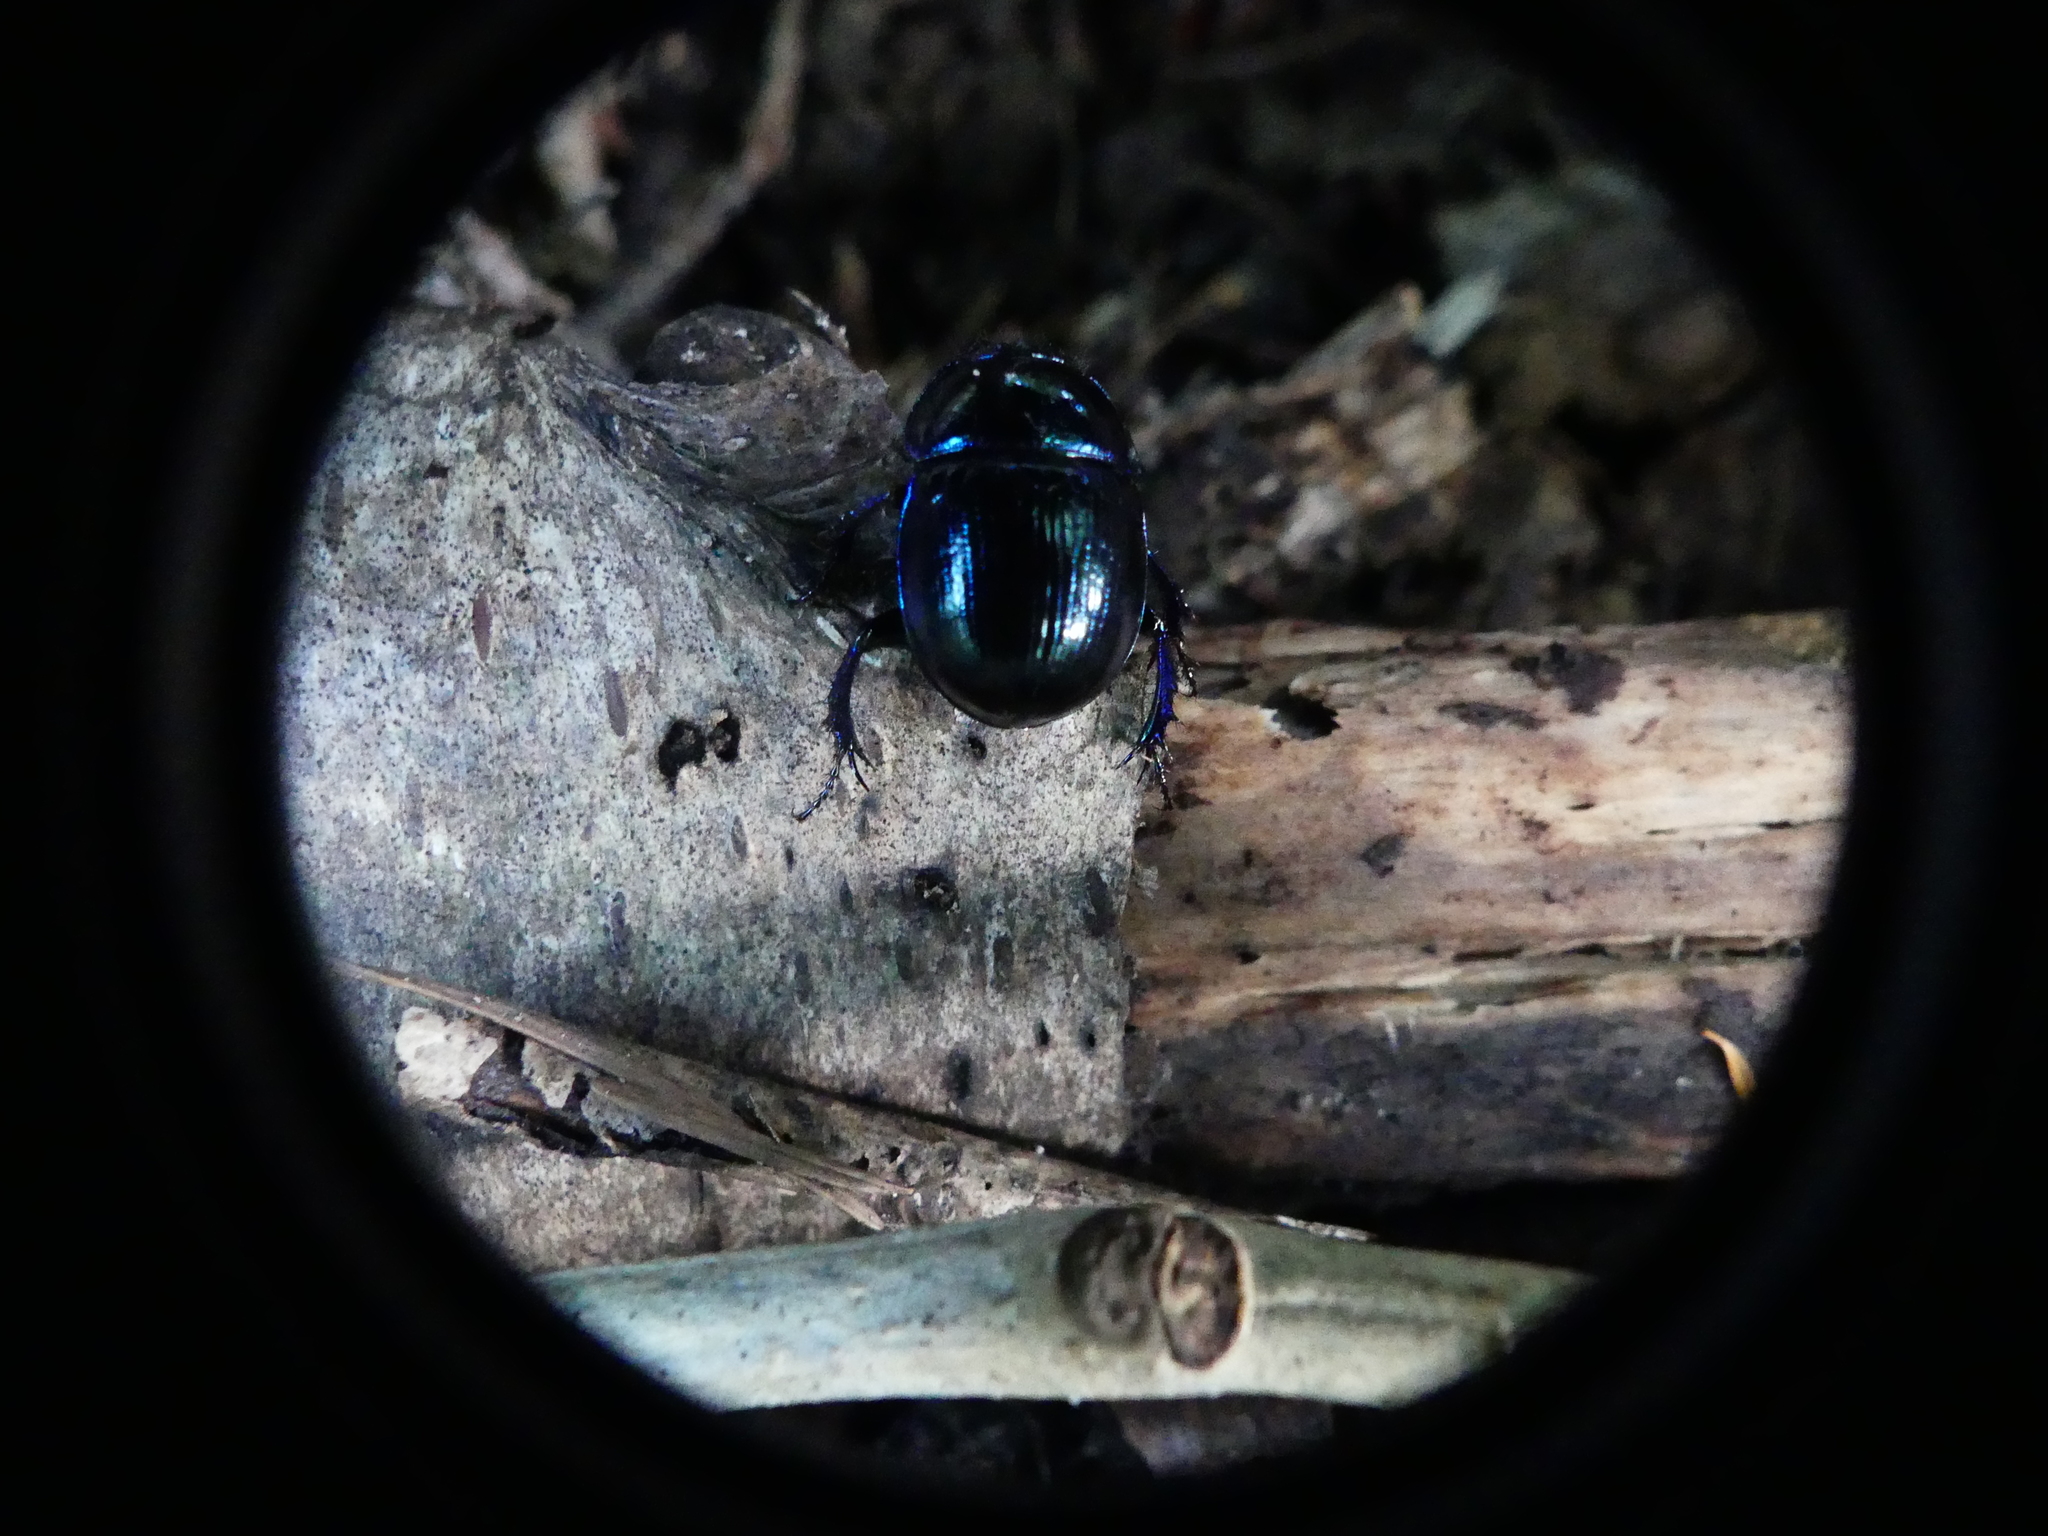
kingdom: Animalia
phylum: Arthropoda
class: Insecta
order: Coleoptera
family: Geotrupidae
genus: Anoplotrupes
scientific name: Anoplotrupes stercorosus
